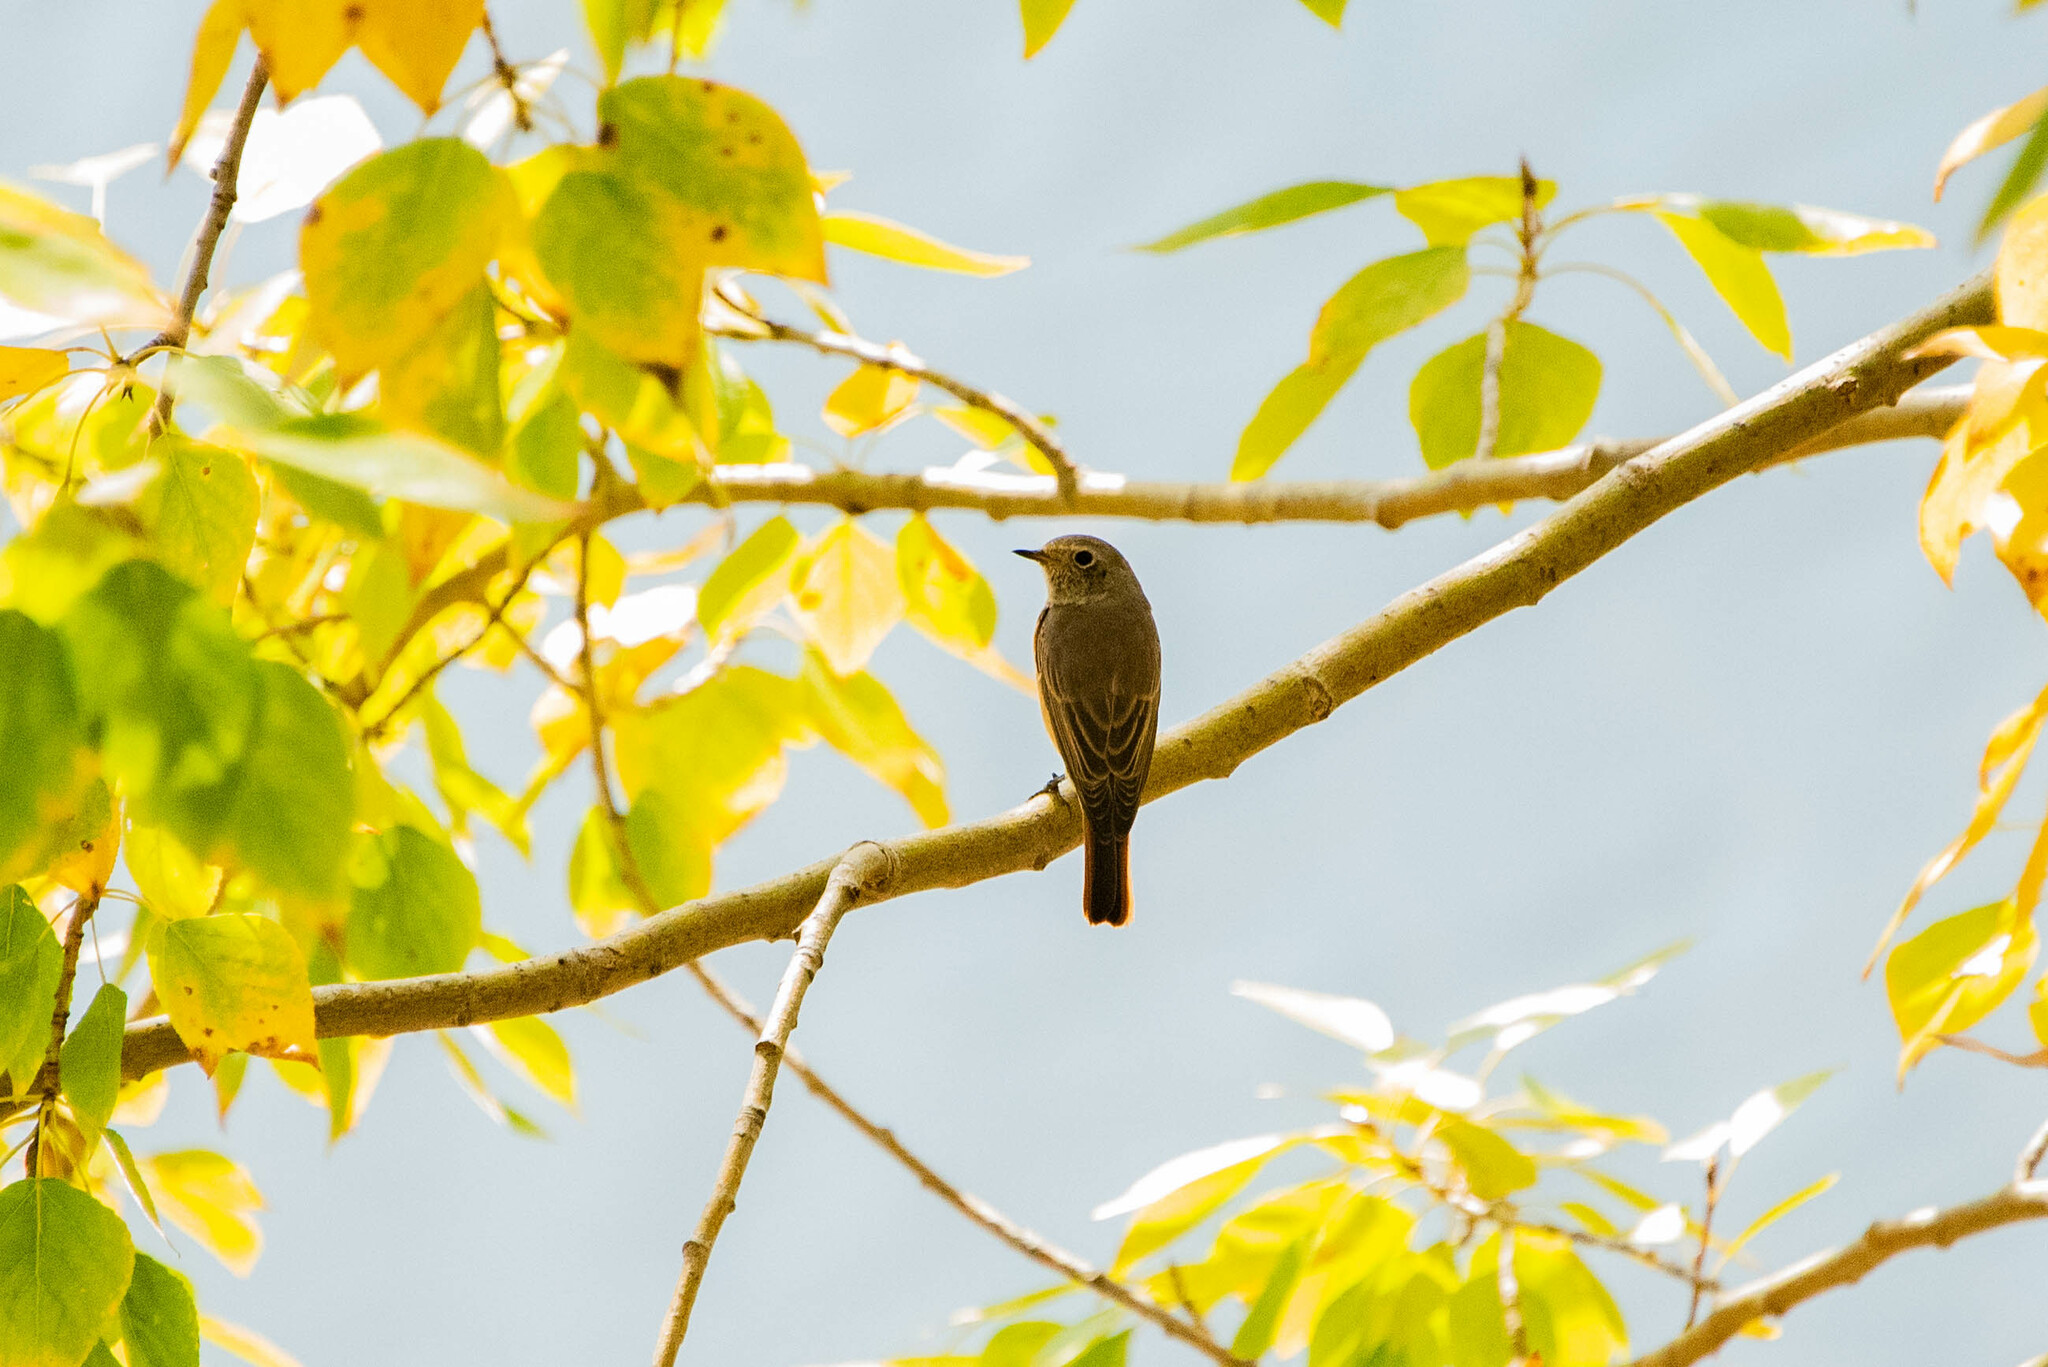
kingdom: Animalia
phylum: Chordata
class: Aves
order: Passeriformes
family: Muscicapidae
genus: Phoenicurus
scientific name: Phoenicurus phoenicurus
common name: Common redstart
